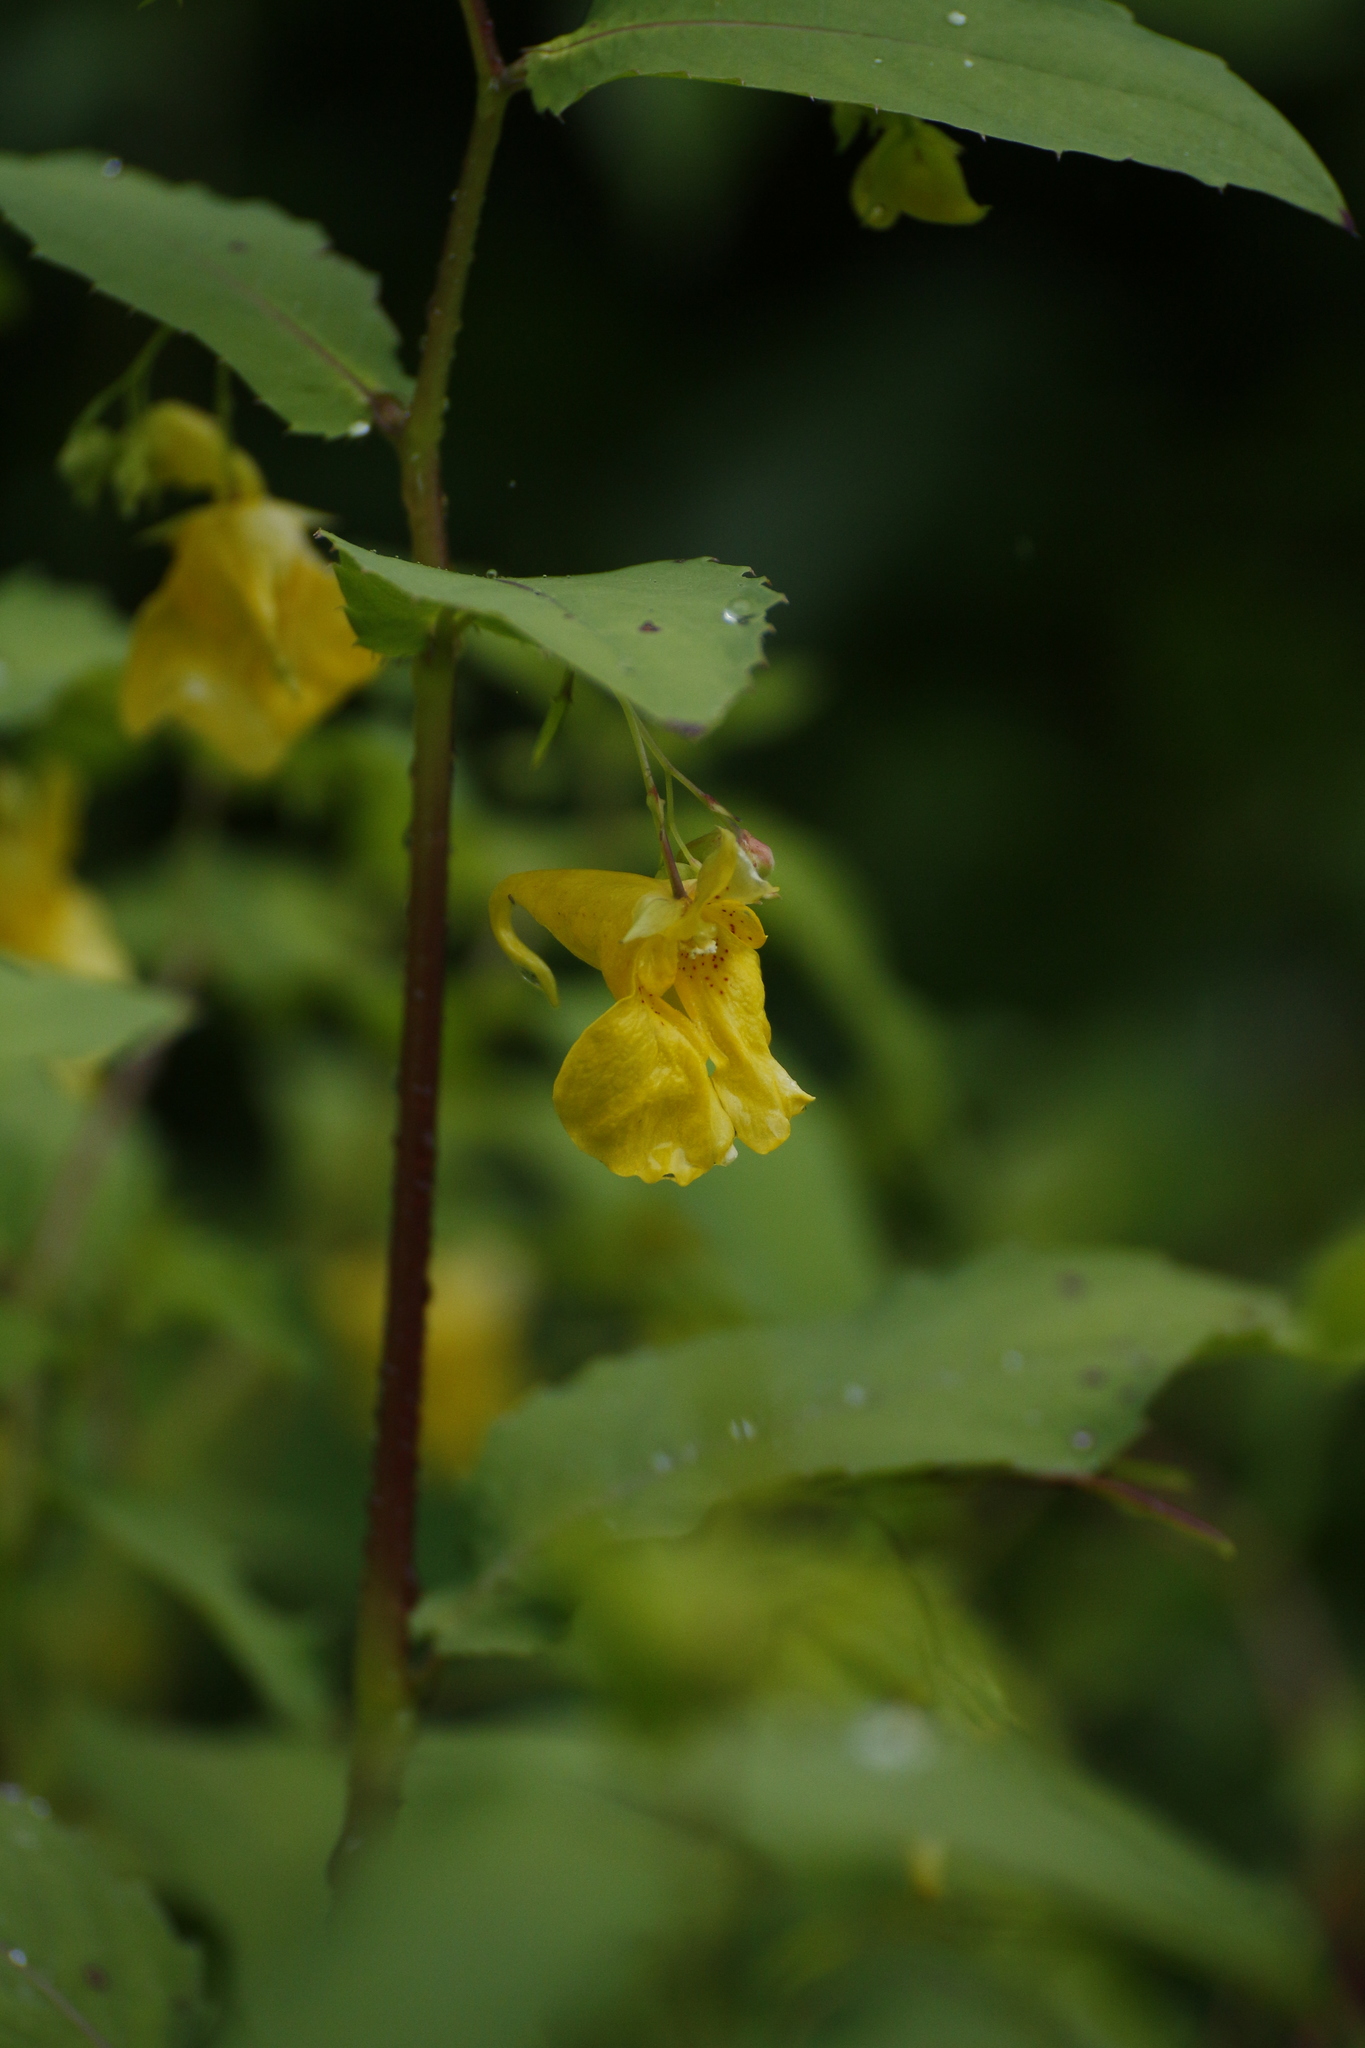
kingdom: Plantae
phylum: Tracheophyta
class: Magnoliopsida
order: Ericales
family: Balsaminaceae
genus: Impatiens
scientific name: Impatiens noli-tangere
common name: Touch-me-not balsam
